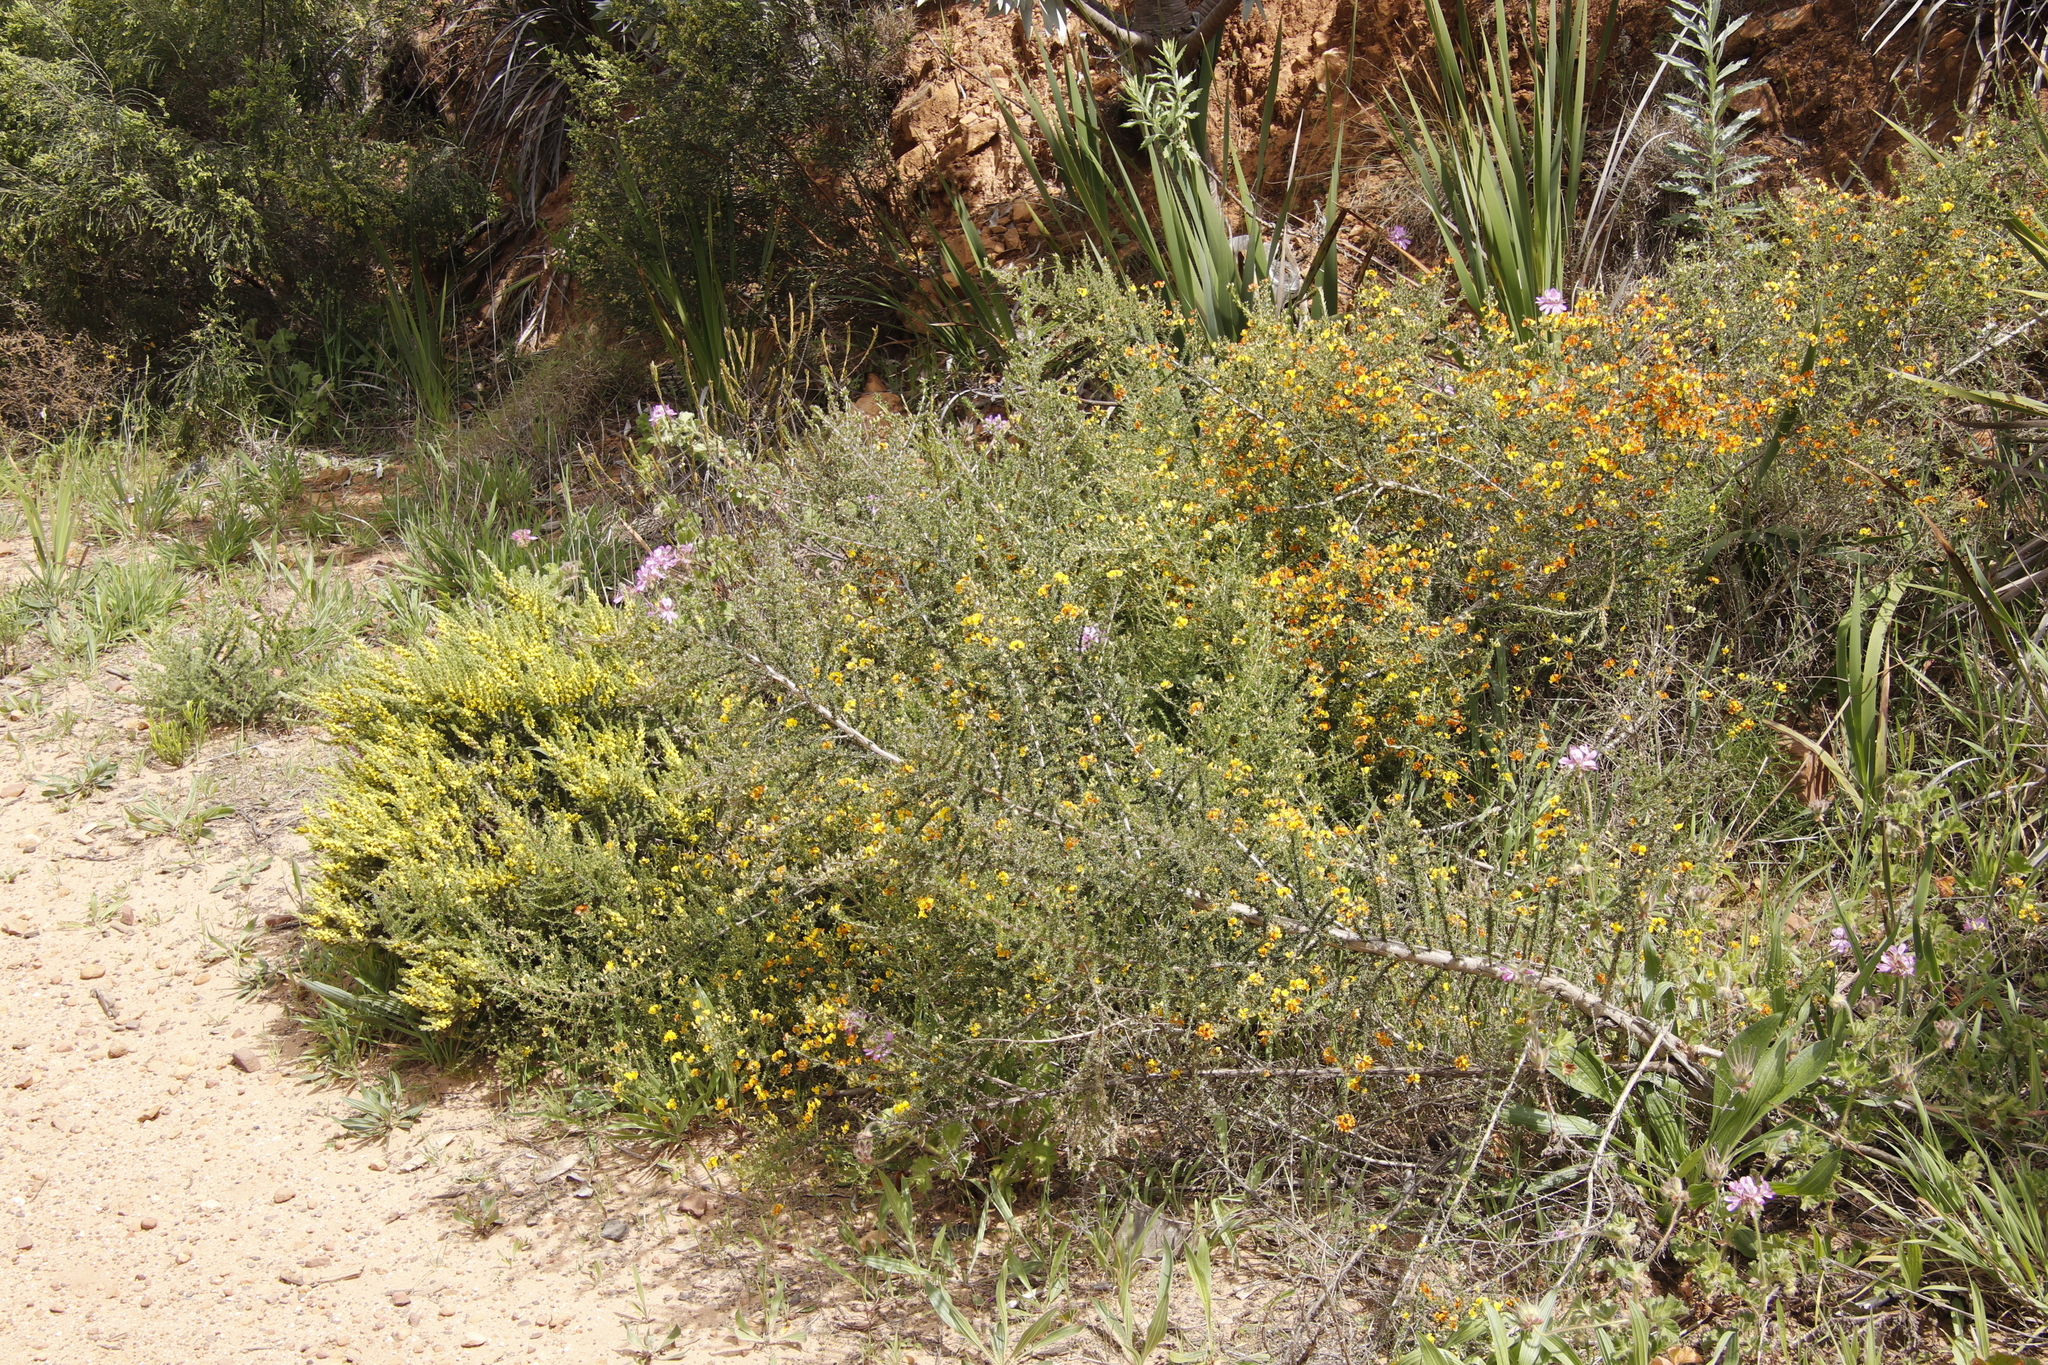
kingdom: Plantae
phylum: Tracheophyta
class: Magnoliopsida
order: Fabales
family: Fabaceae
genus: Aspalathus
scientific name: Aspalathus ericifolia
